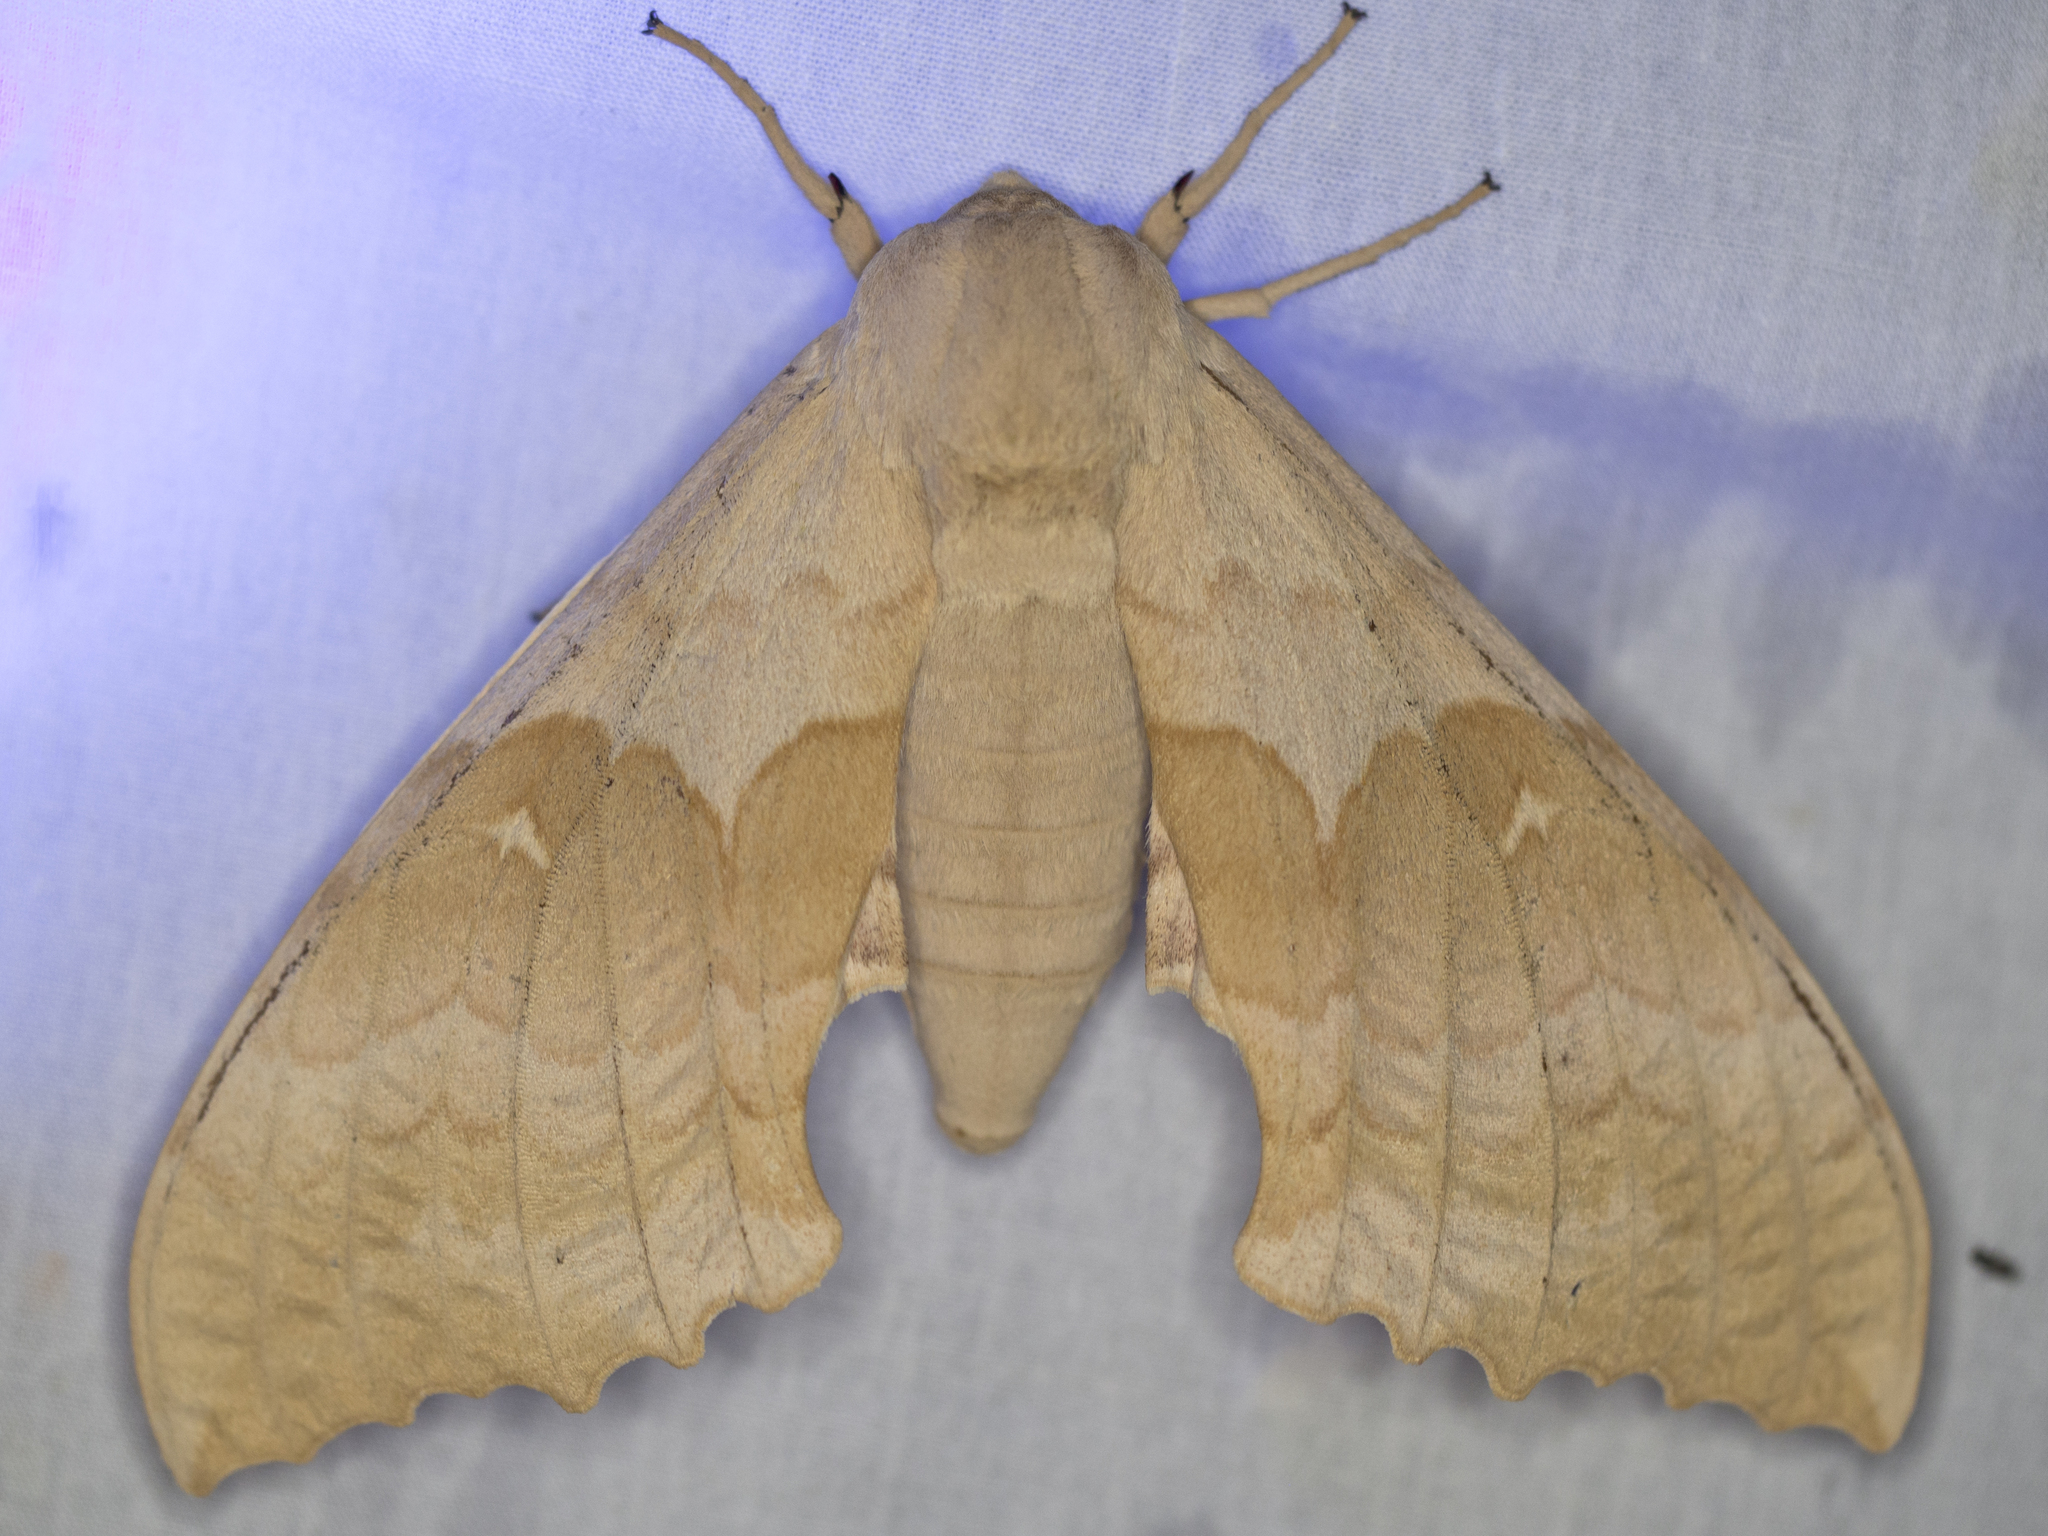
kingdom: Animalia
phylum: Arthropoda
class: Insecta
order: Lepidoptera
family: Sphingidae
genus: Pachysphinx
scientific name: Pachysphinx occidentalis
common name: Western poplar sphinx
